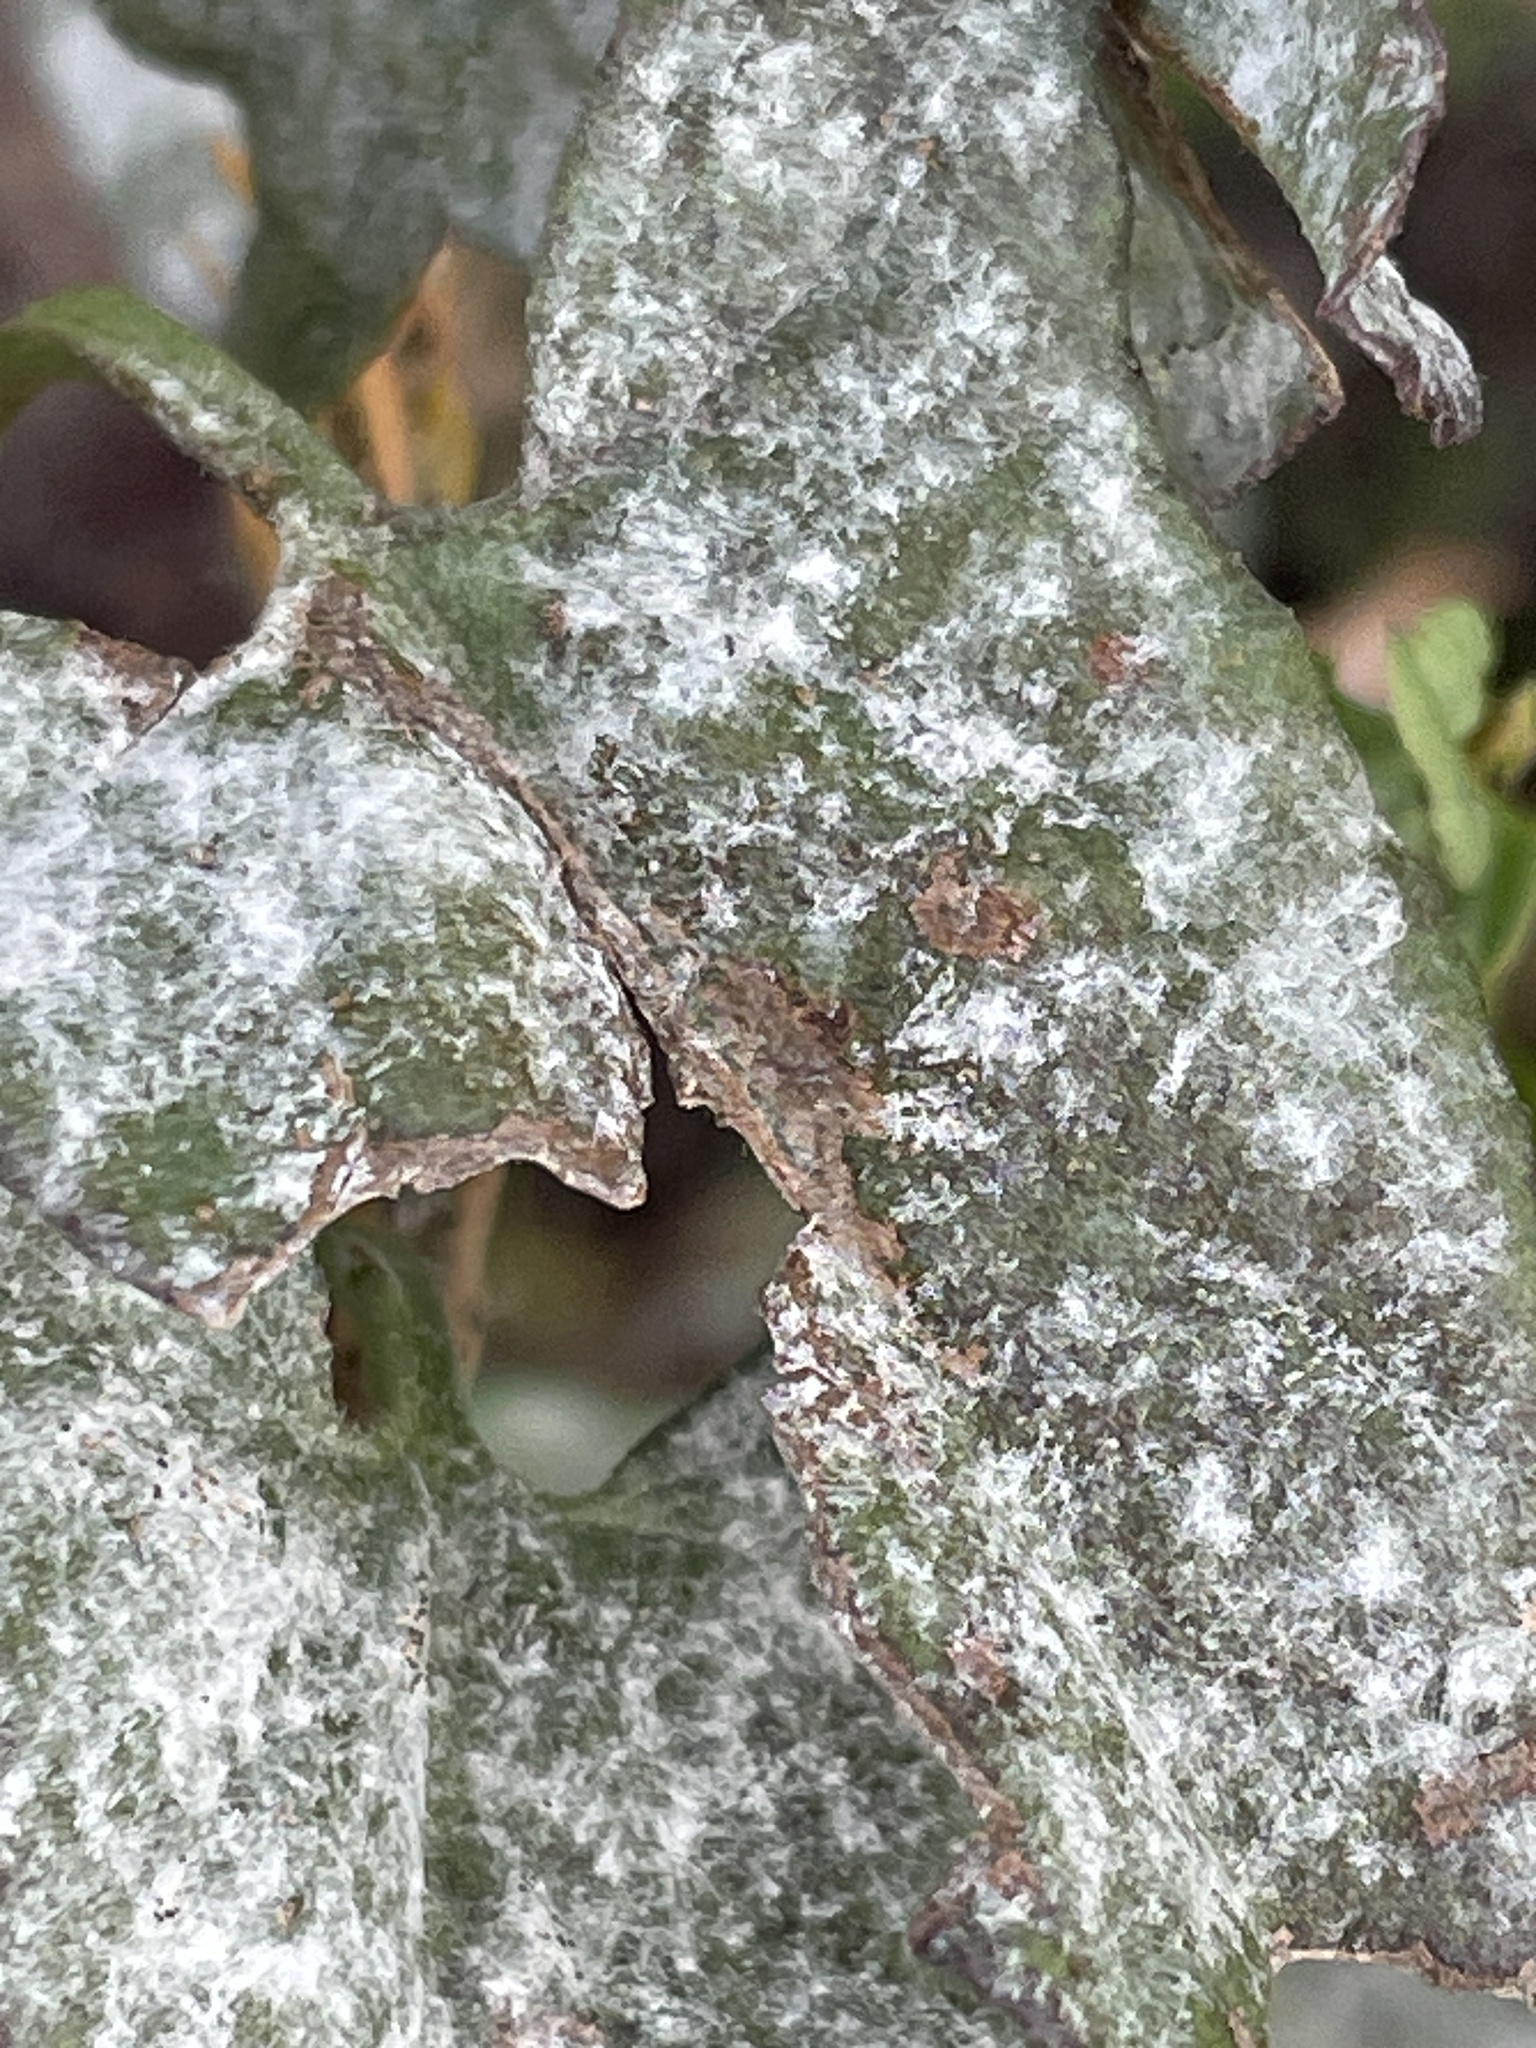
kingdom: Fungi
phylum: Ascomycota
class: Leotiomycetes
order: Helotiales
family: Erysiphaceae
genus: Erysiphe
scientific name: Erysiphe convolvuli
